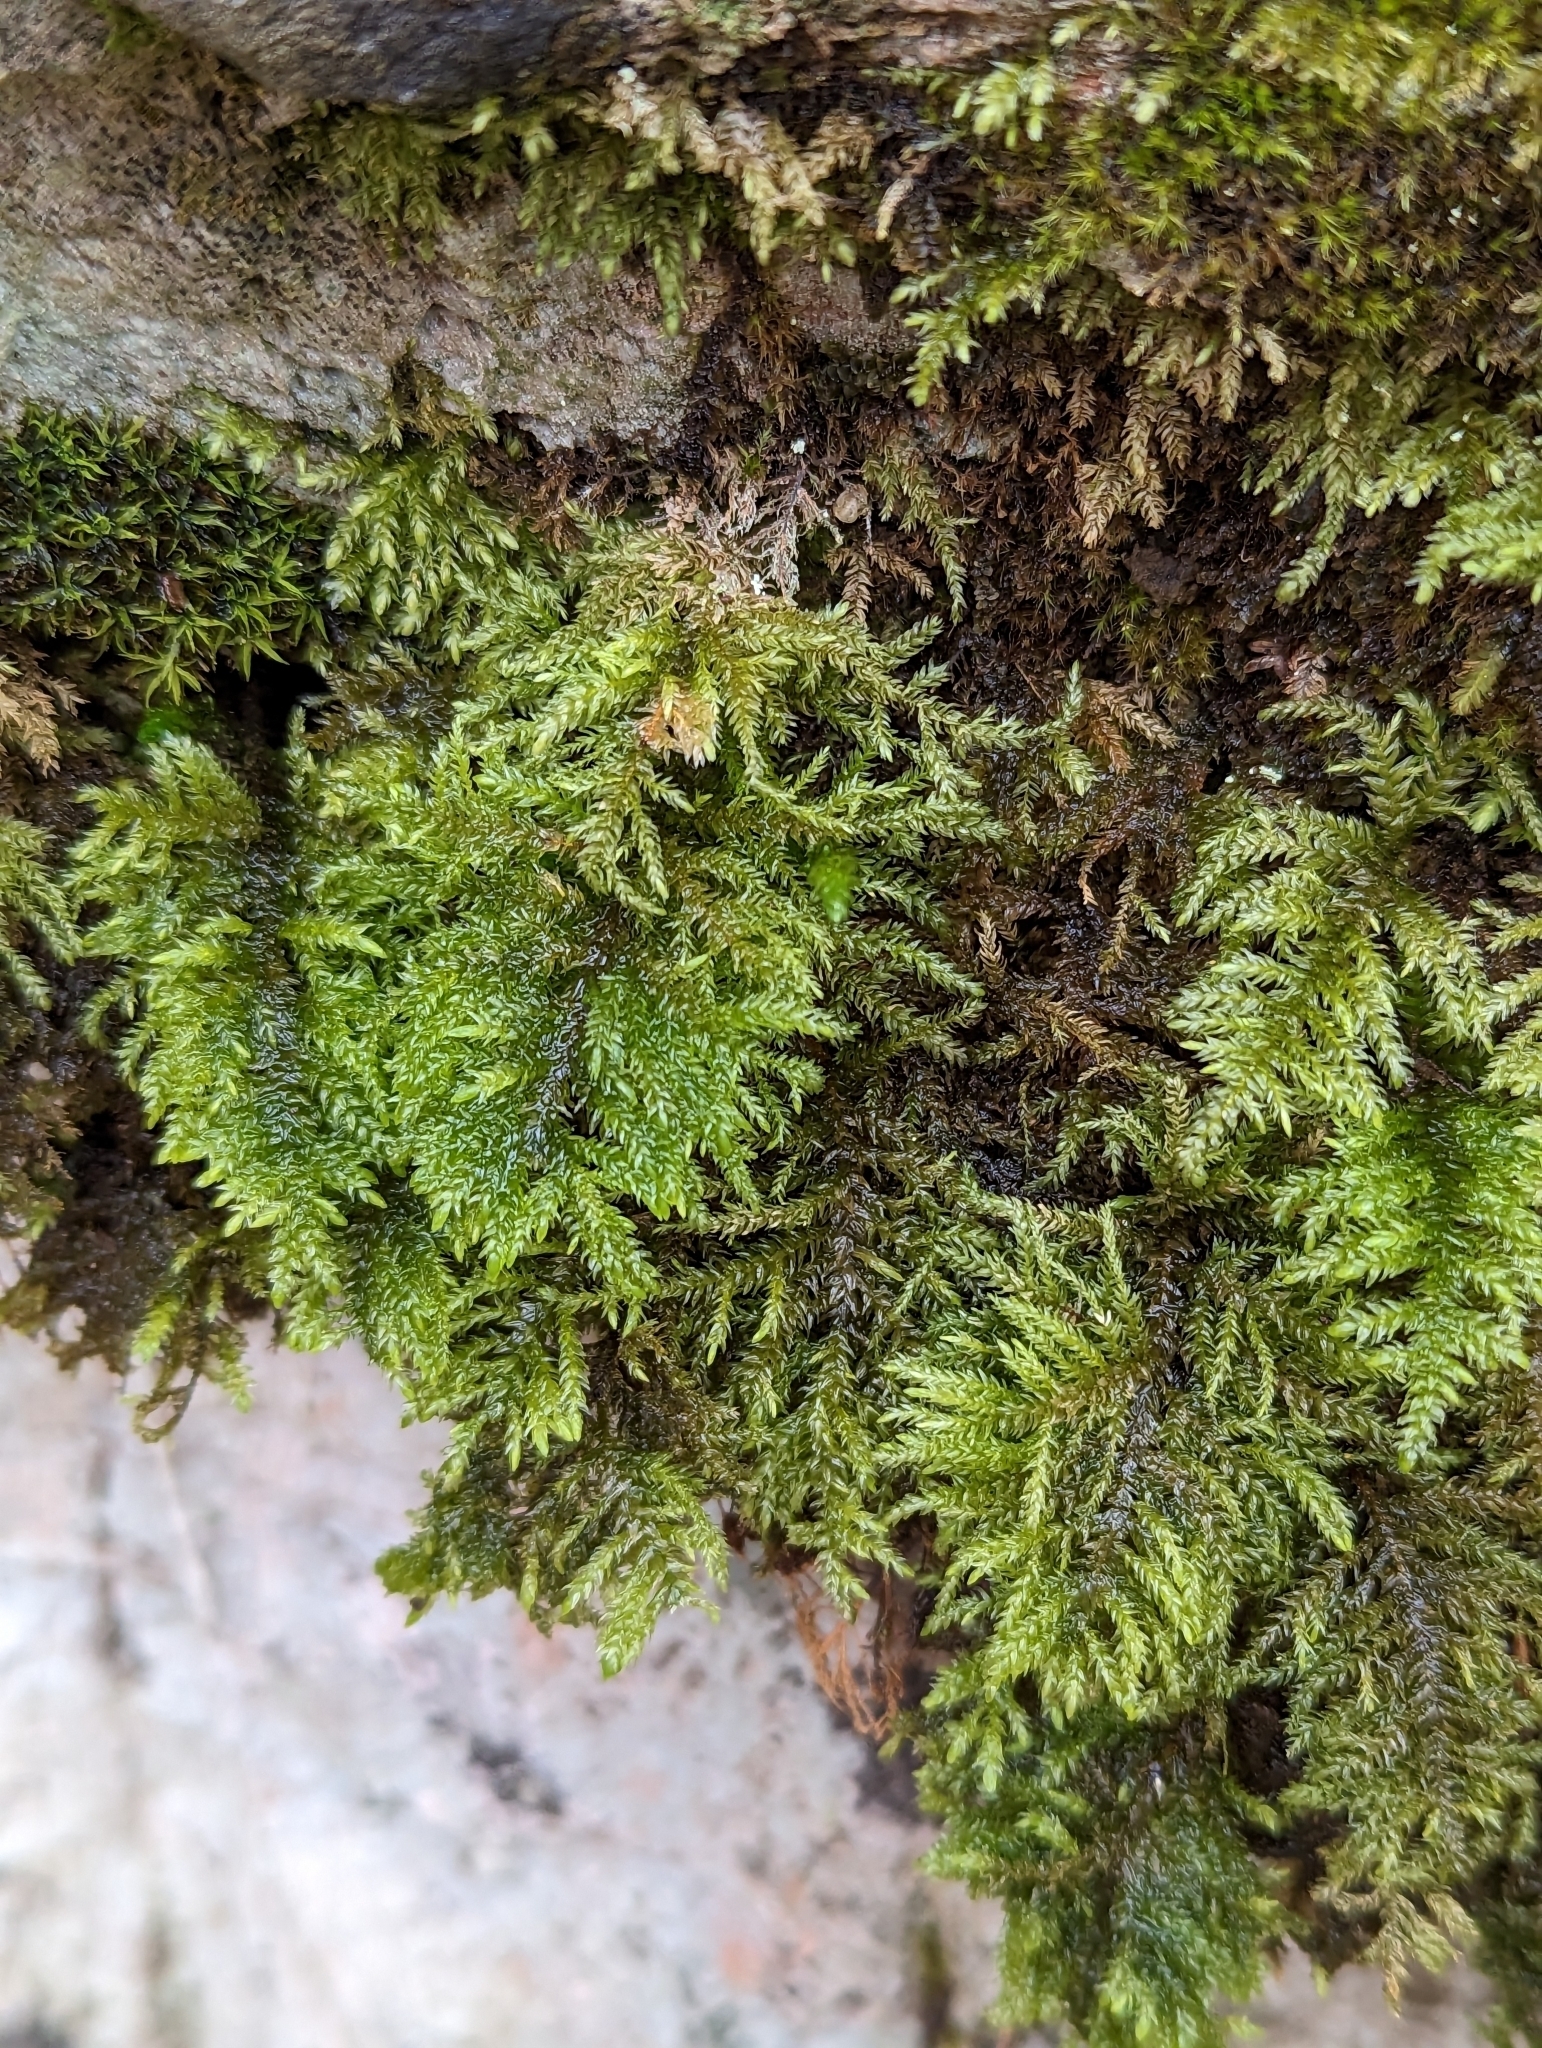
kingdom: Plantae
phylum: Bryophyta
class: Bryopsida
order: Hypnales
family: Neckeraceae
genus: Thamnobryum
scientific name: Thamnobryum alopecurum
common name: Fox-tail feather-moss
